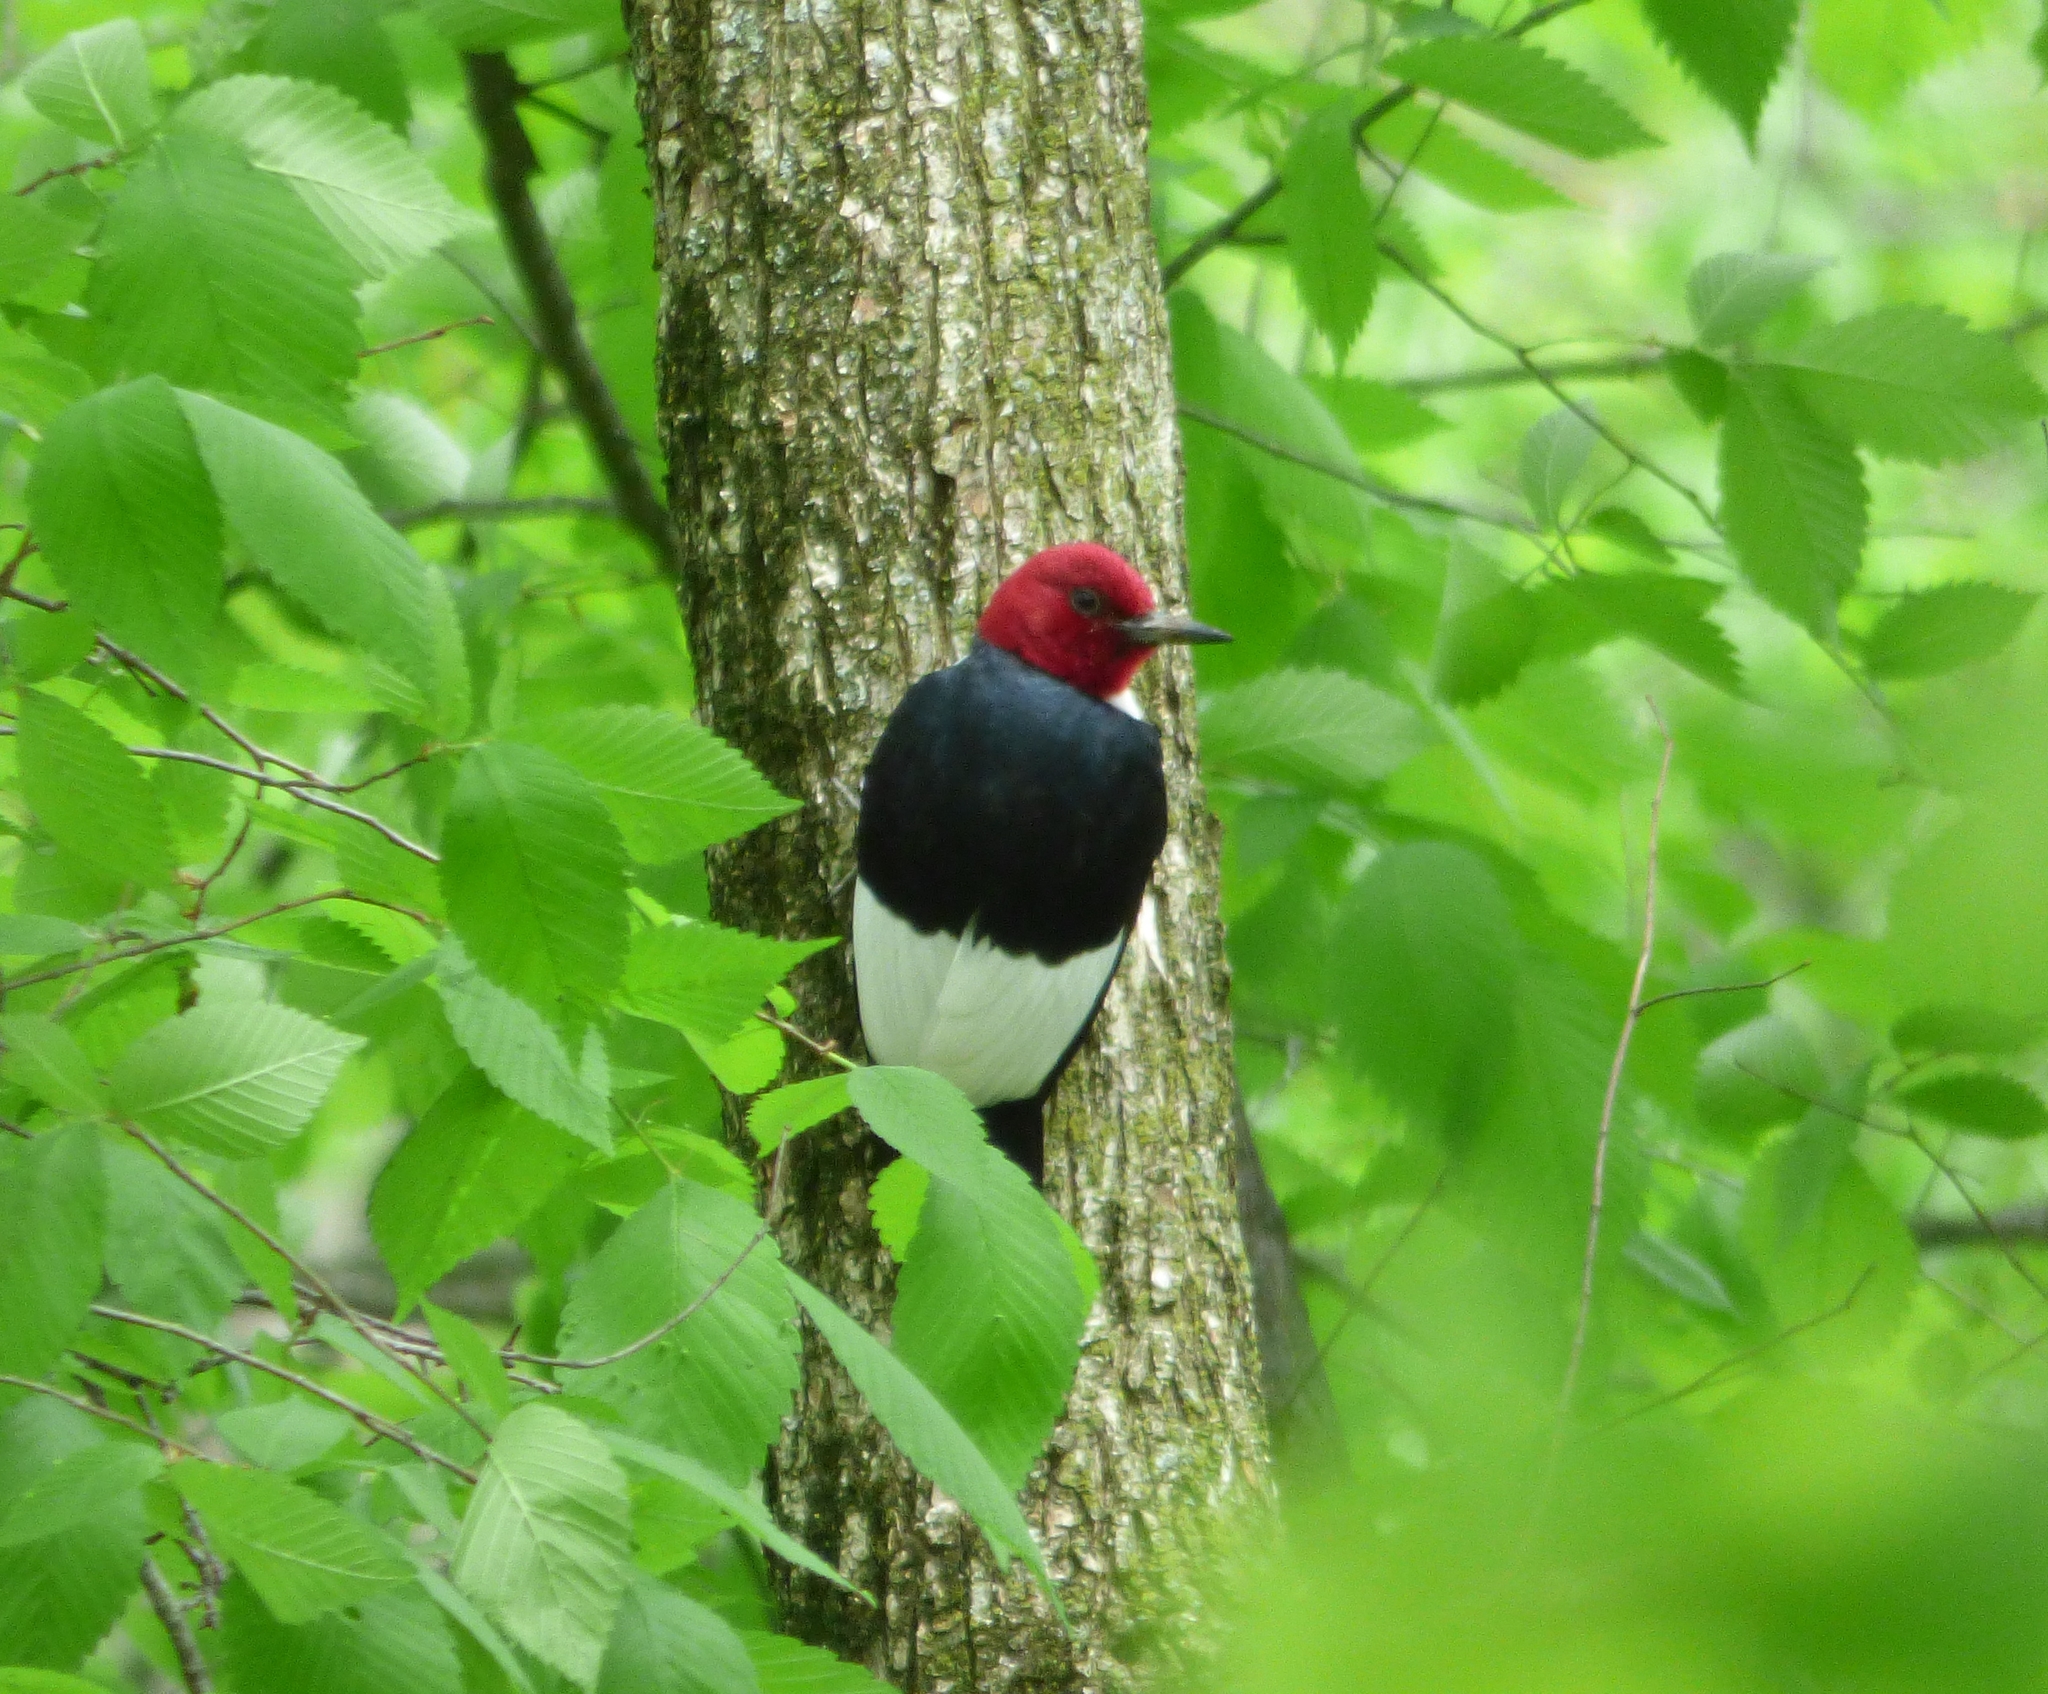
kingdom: Animalia
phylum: Chordata
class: Aves
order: Piciformes
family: Picidae
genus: Melanerpes
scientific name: Melanerpes erythrocephalus
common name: Red-headed woodpecker
